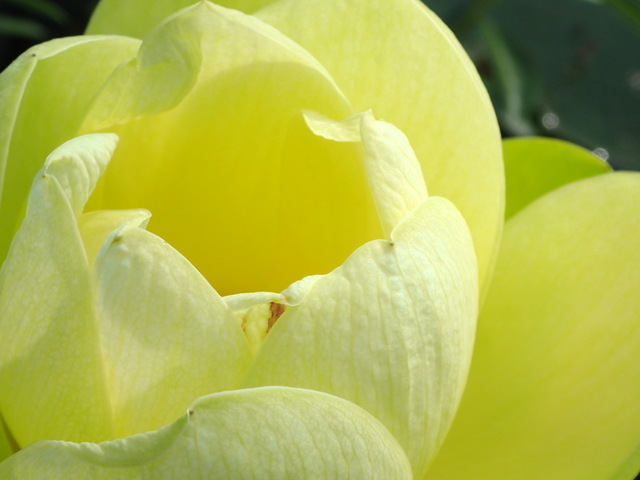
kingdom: Plantae
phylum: Tracheophyta
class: Magnoliopsida
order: Proteales
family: Nelumbonaceae
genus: Nelumbo
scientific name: Nelumbo lutea
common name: American lotus
